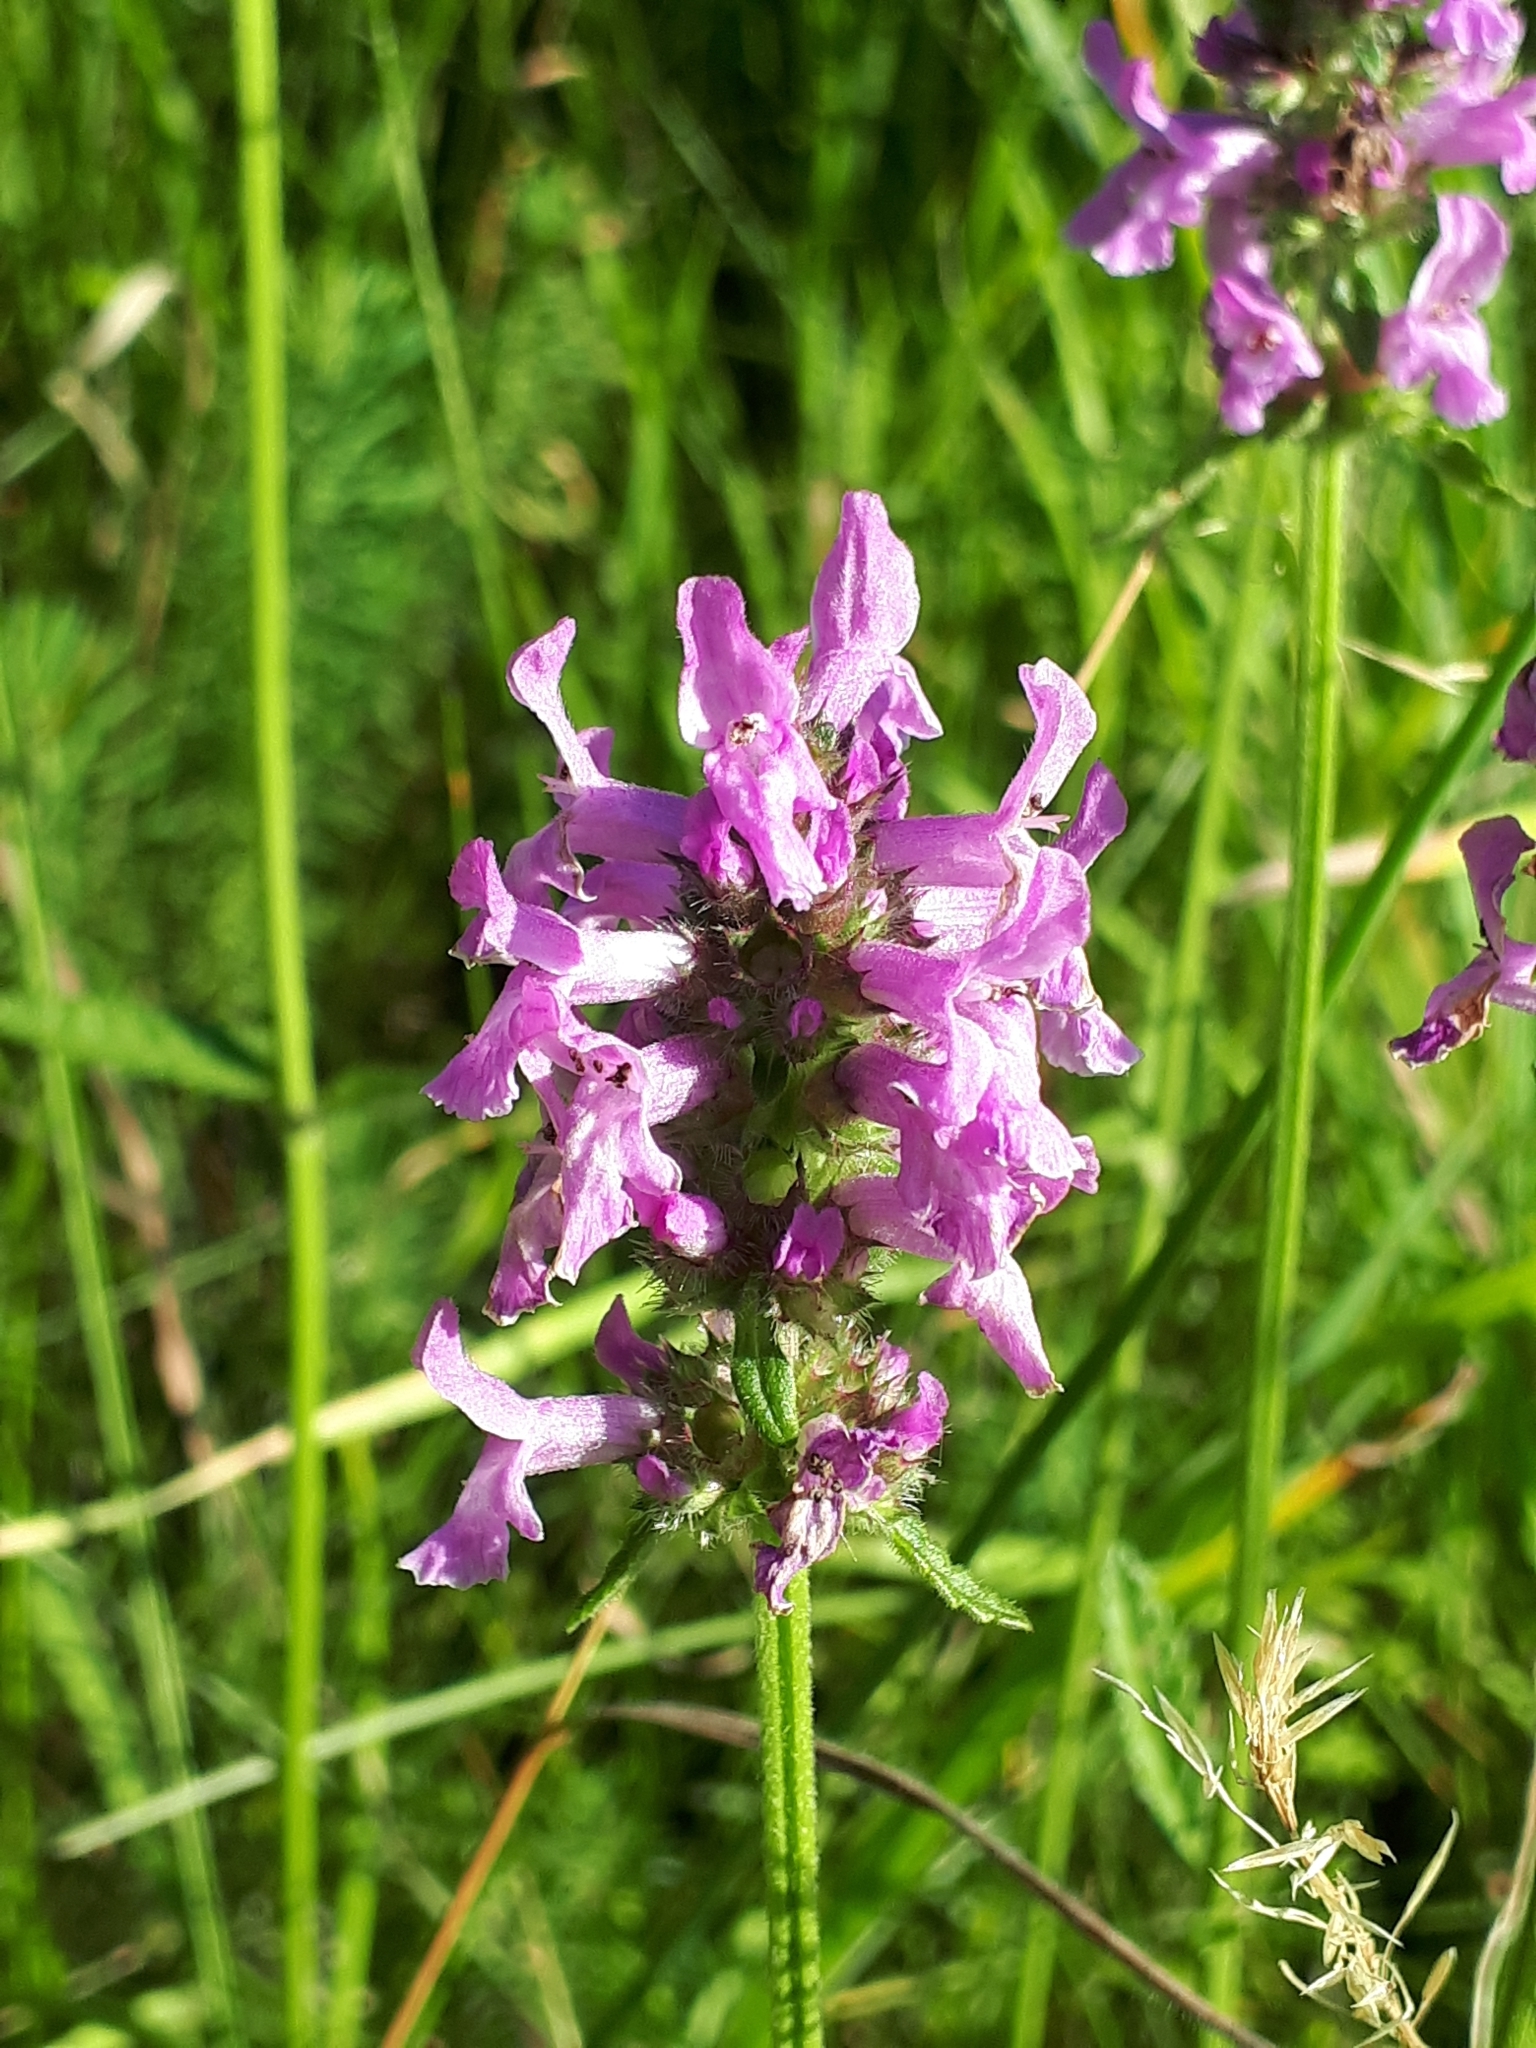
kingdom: Plantae
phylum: Tracheophyta
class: Magnoliopsida
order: Lamiales
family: Lamiaceae
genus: Betonica
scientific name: Betonica officinalis
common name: Bishop's-wort
